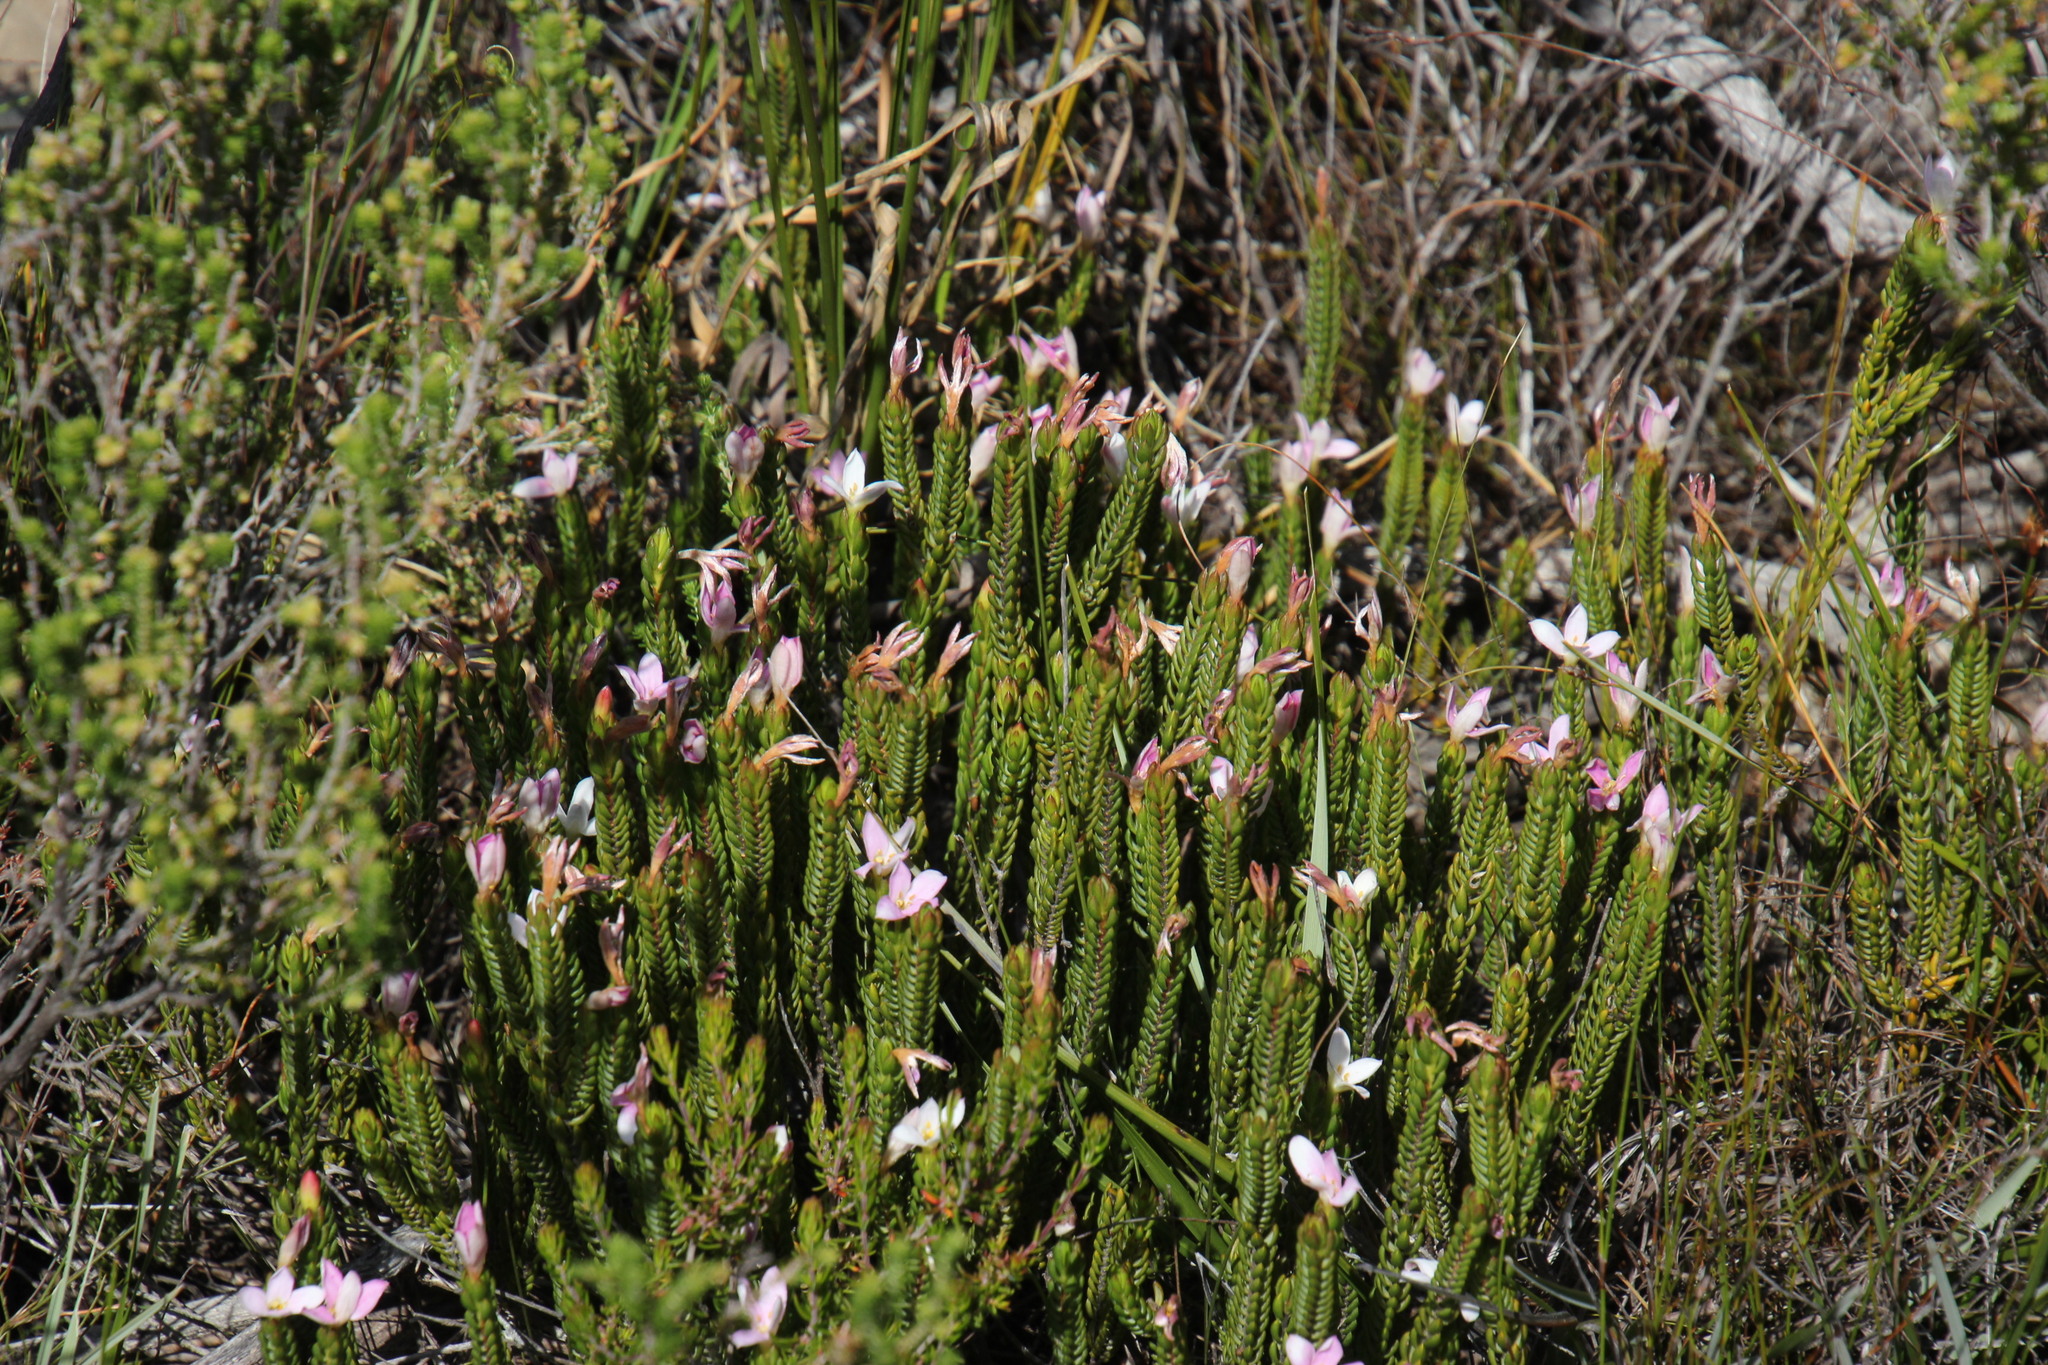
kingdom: Plantae
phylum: Tracheophyta
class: Magnoliopsida
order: Malvales
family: Thymelaeaceae
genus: Lachnaea
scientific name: Lachnaea grandiflora
